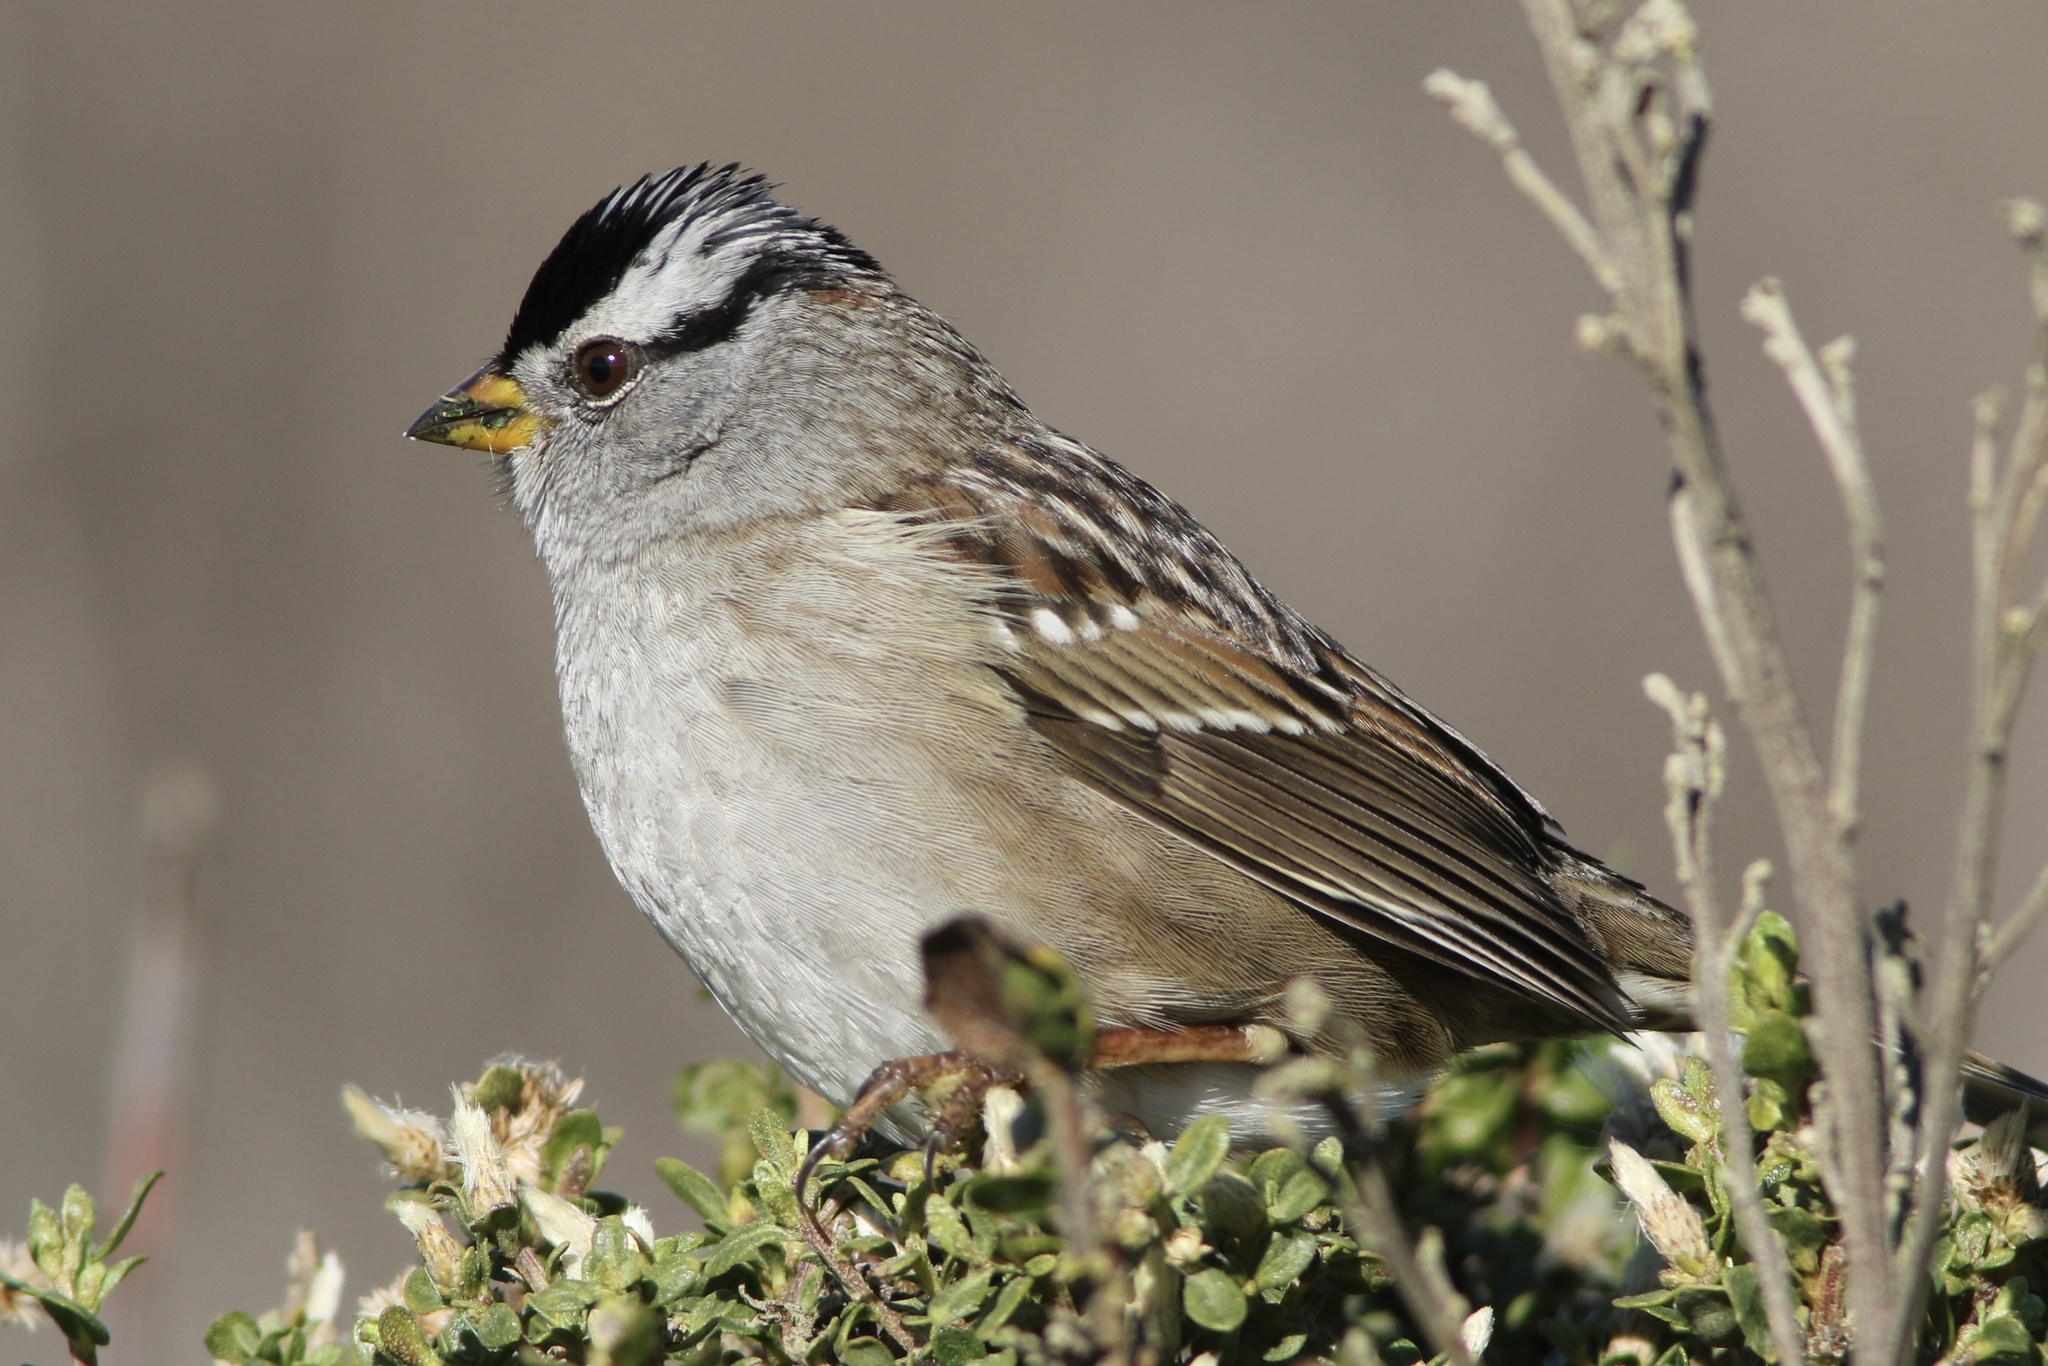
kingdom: Animalia
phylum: Chordata
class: Aves
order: Passeriformes
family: Passerellidae
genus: Zonotrichia
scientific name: Zonotrichia leucophrys
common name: White-crowned sparrow
